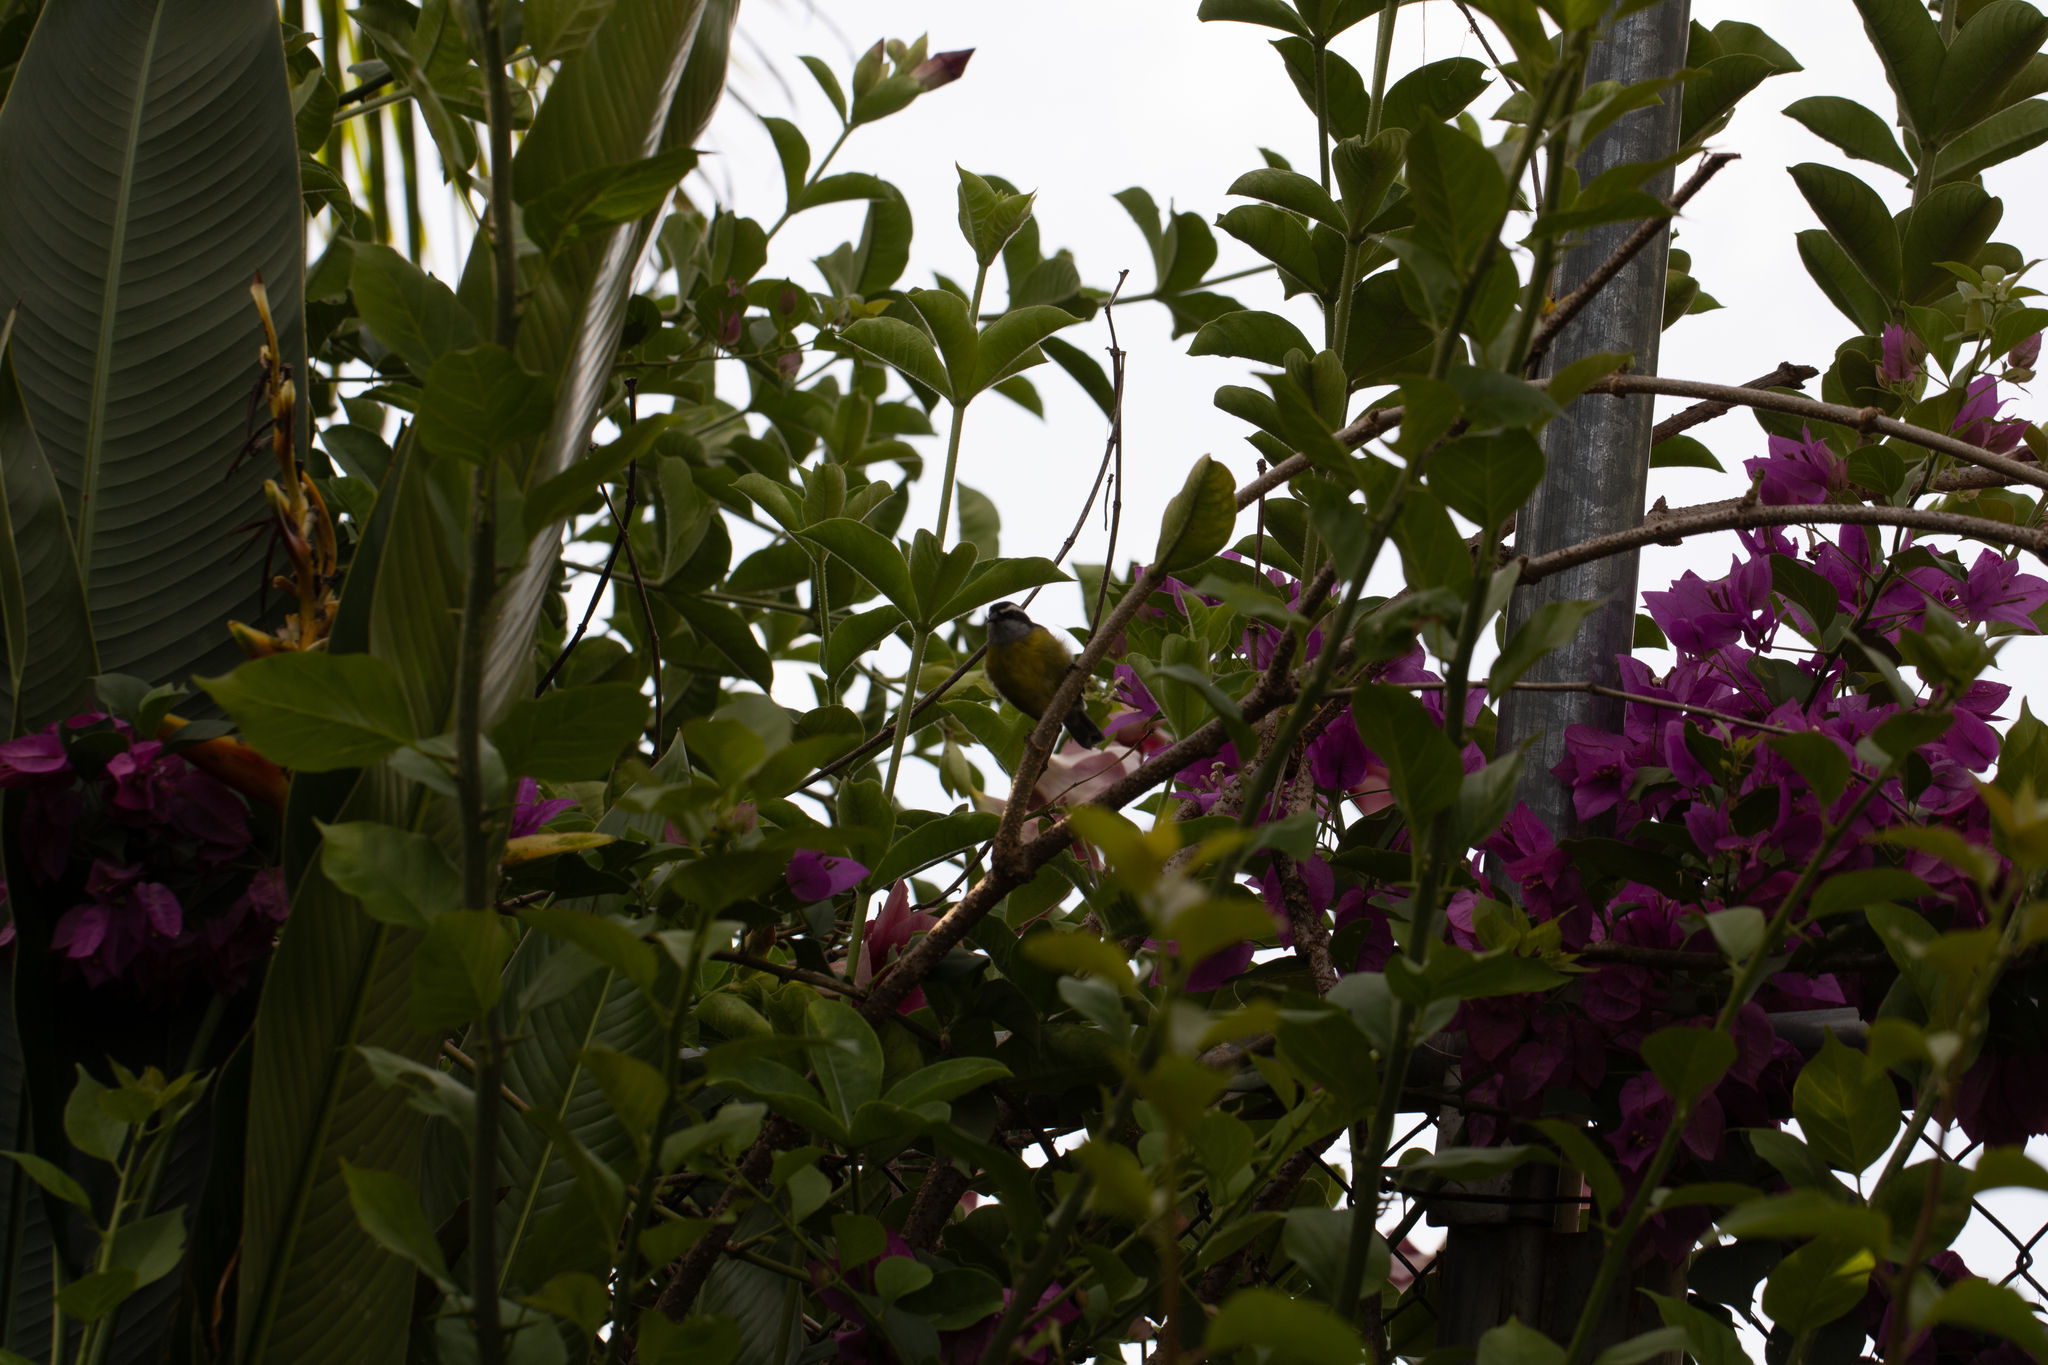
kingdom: Animalia
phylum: Chordata
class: Aves
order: Passeriformes
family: Thraupidae
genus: Coereba
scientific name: Coereba flaveola
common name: Bananaquit
